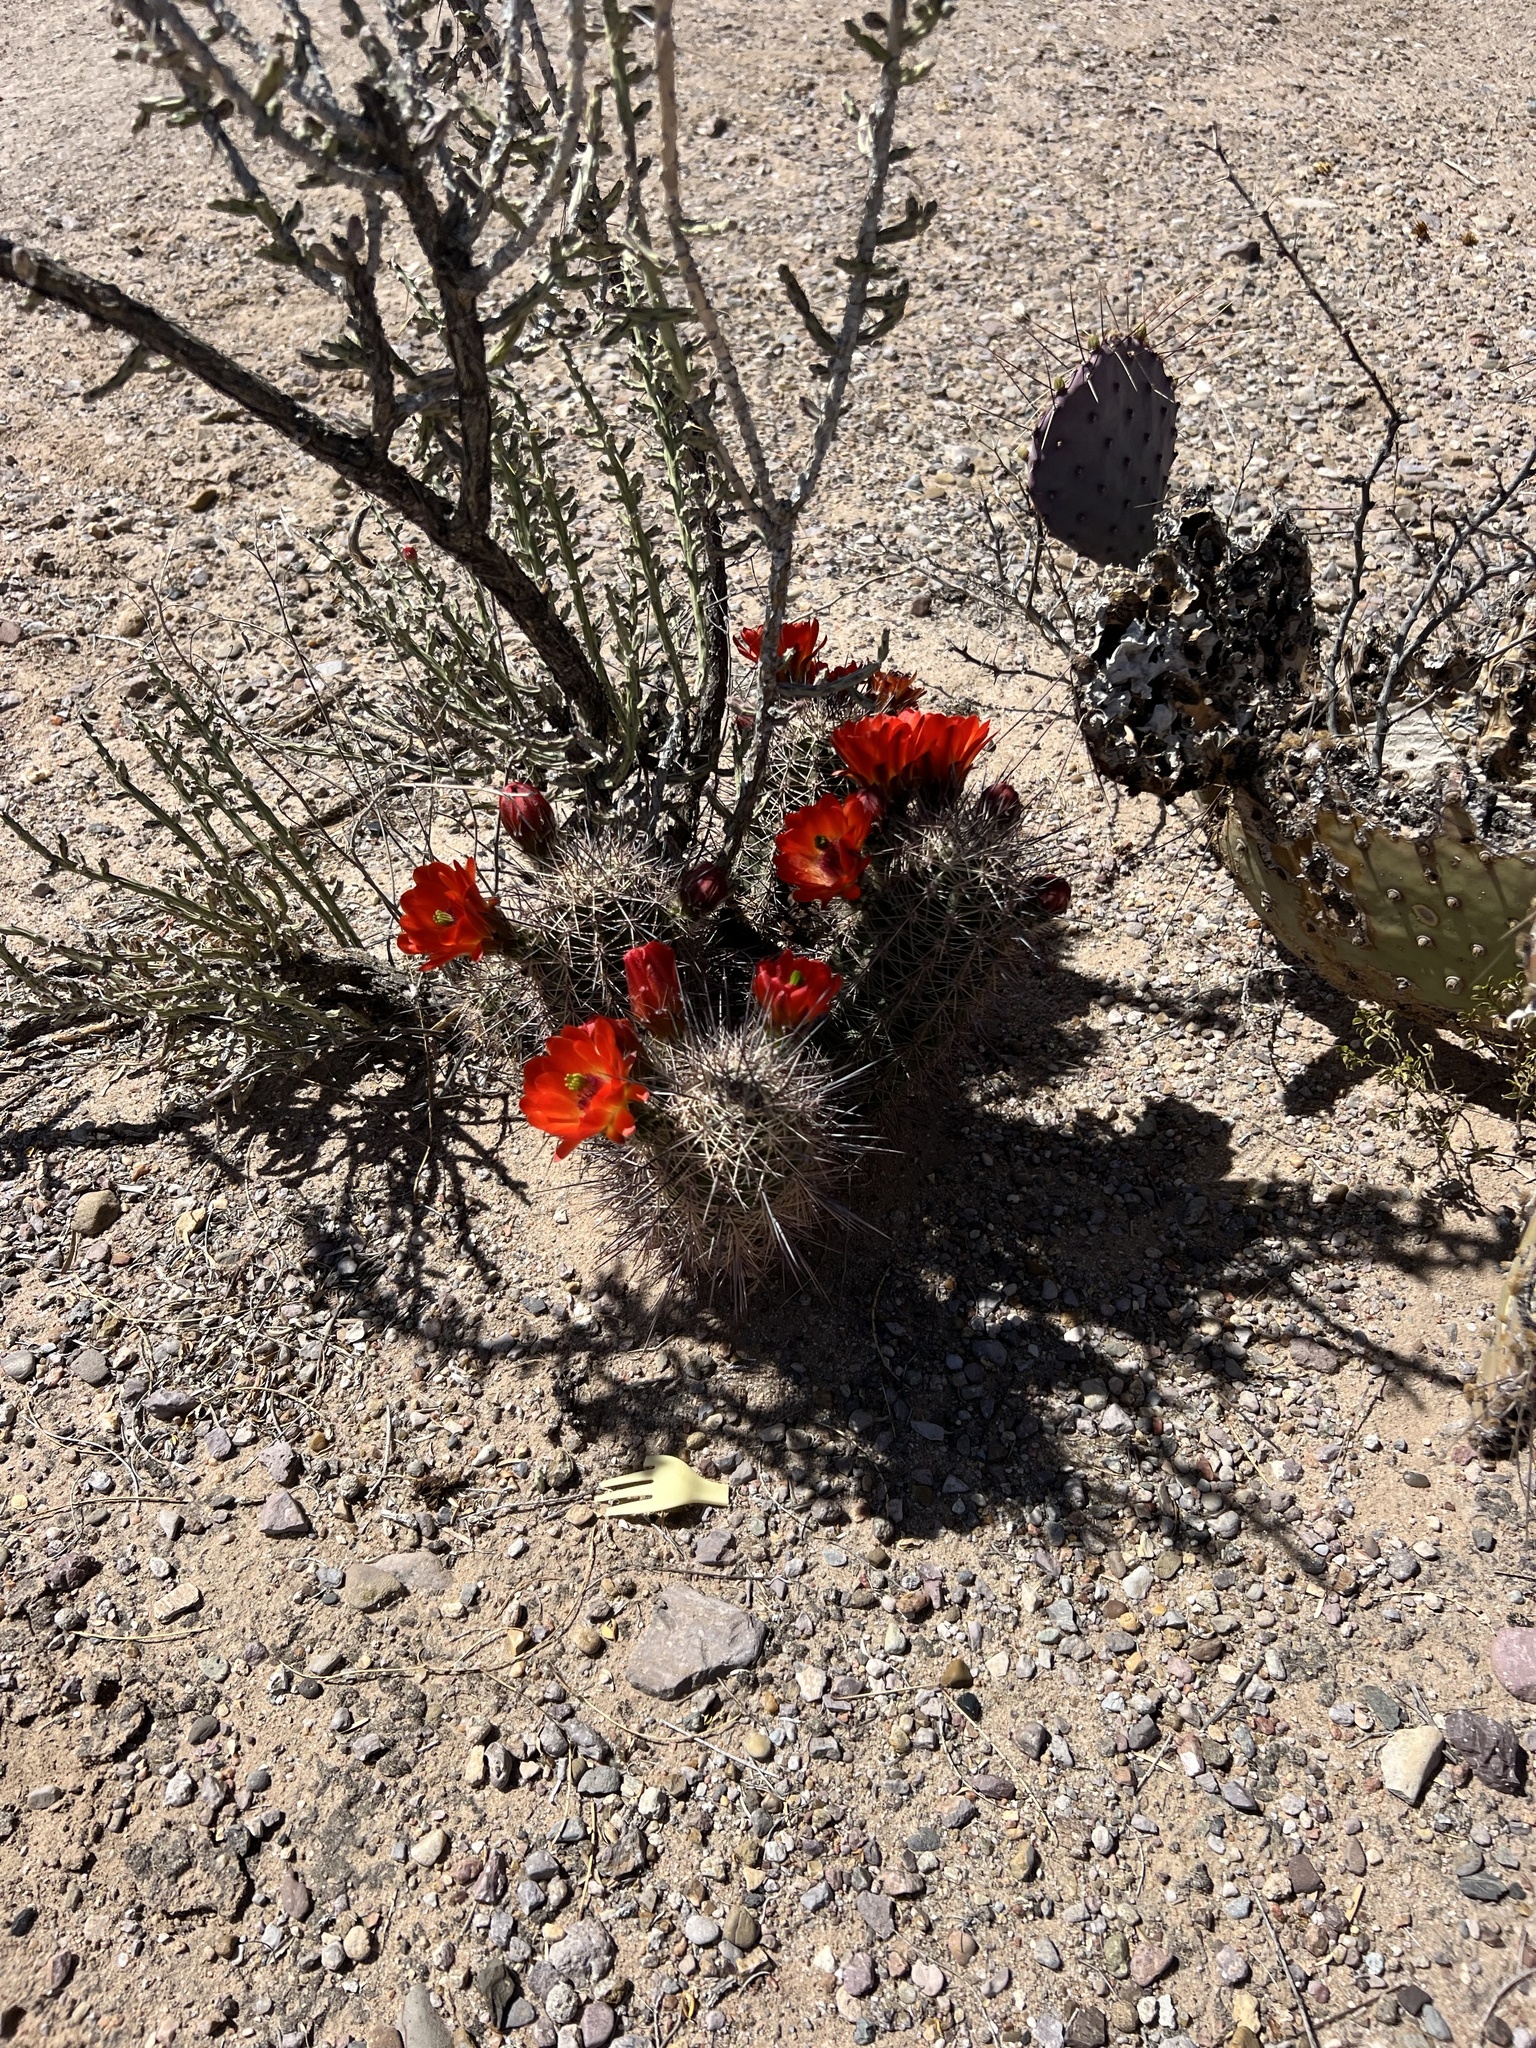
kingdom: Plantae
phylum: Tracheophyta
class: Magnoliopsida
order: Caryophyllales
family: Cactaceae
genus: Echinocereus
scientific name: Echinocereus coccineus
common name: Scarlet hedgehog cactus
